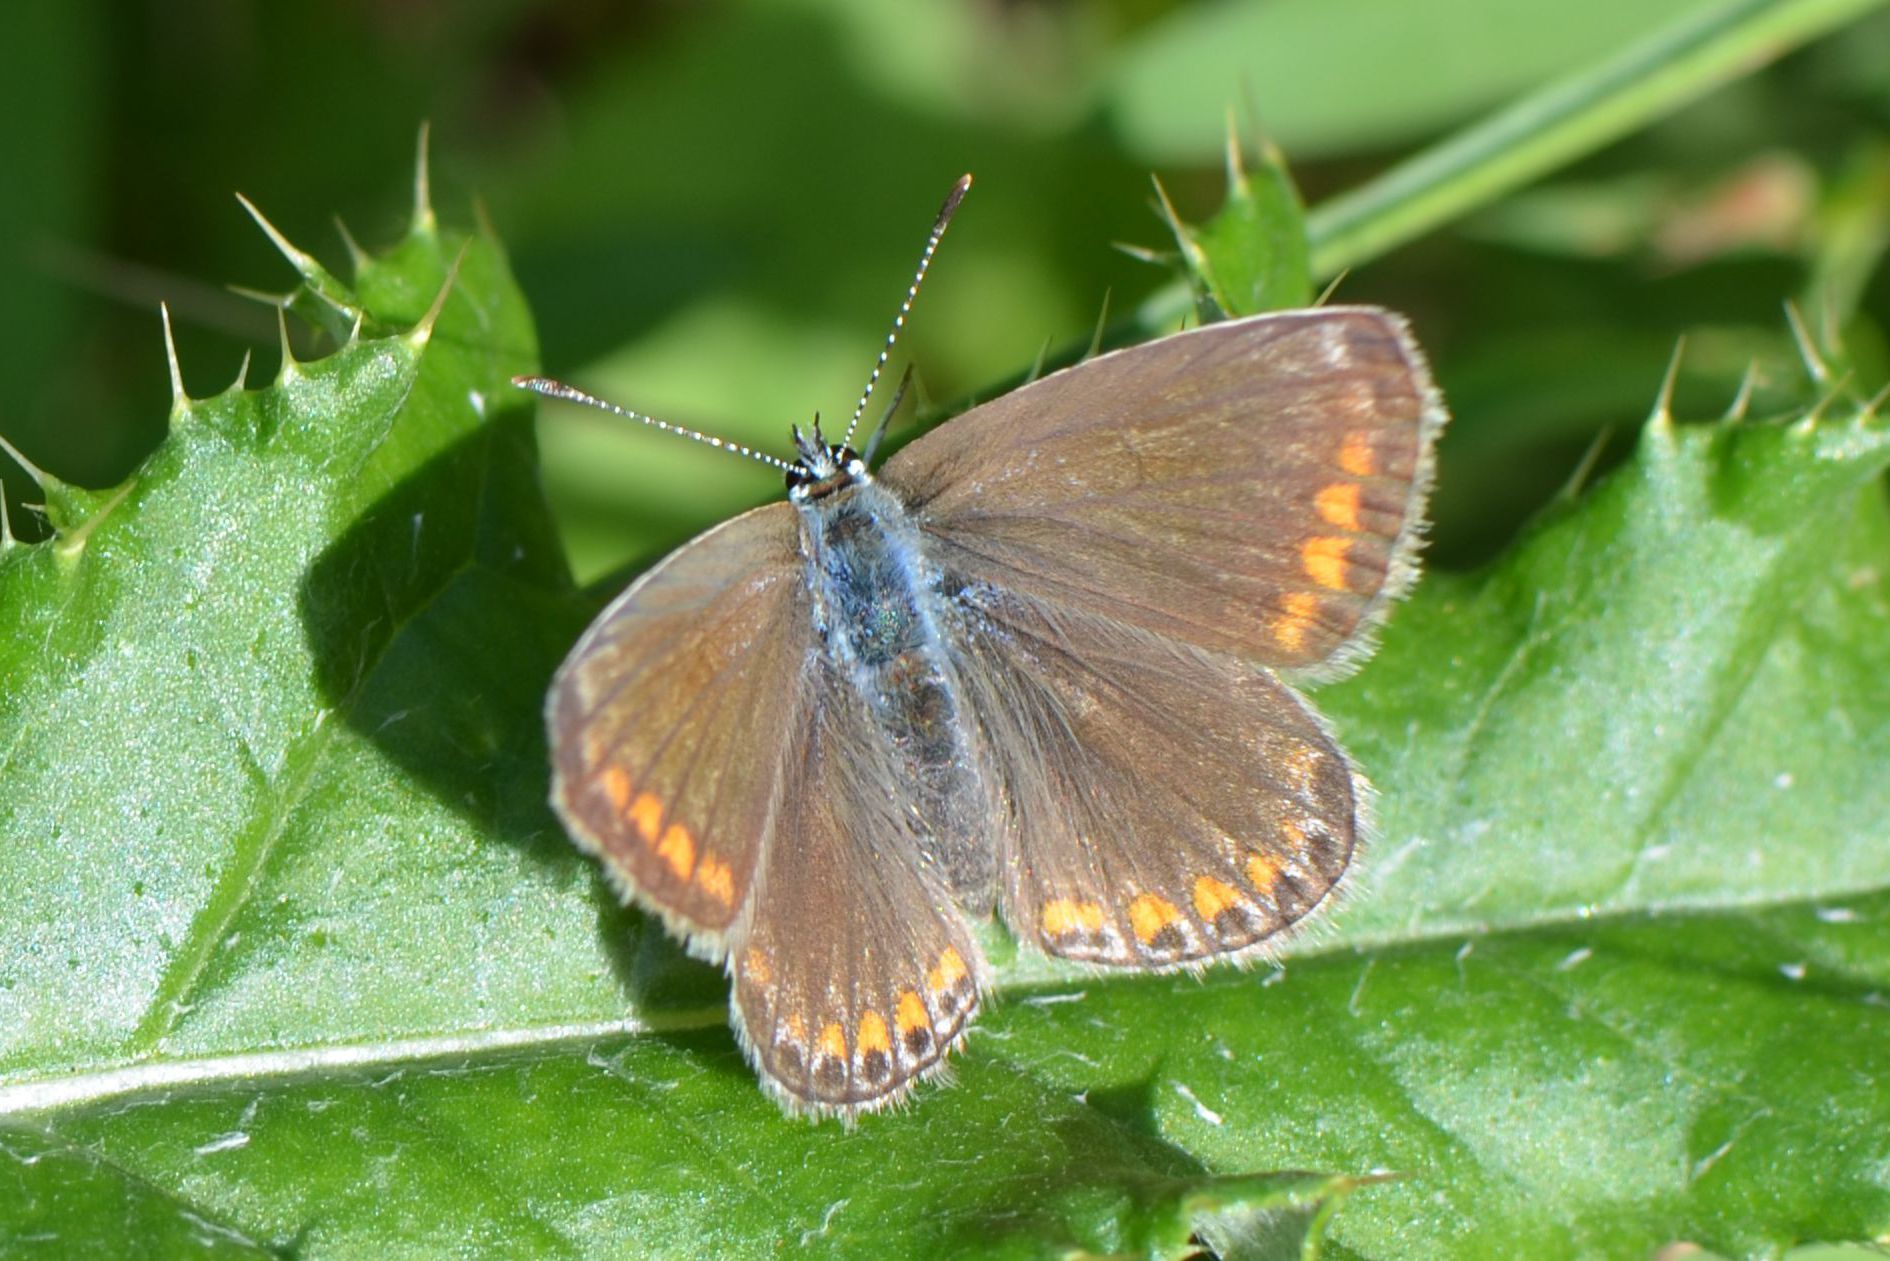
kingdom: Animalia
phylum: Arthropoda
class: Insecta
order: Lepidoptera
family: Lycaenidae
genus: Polyommatus
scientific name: Polyommatus icarus
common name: Common blue
